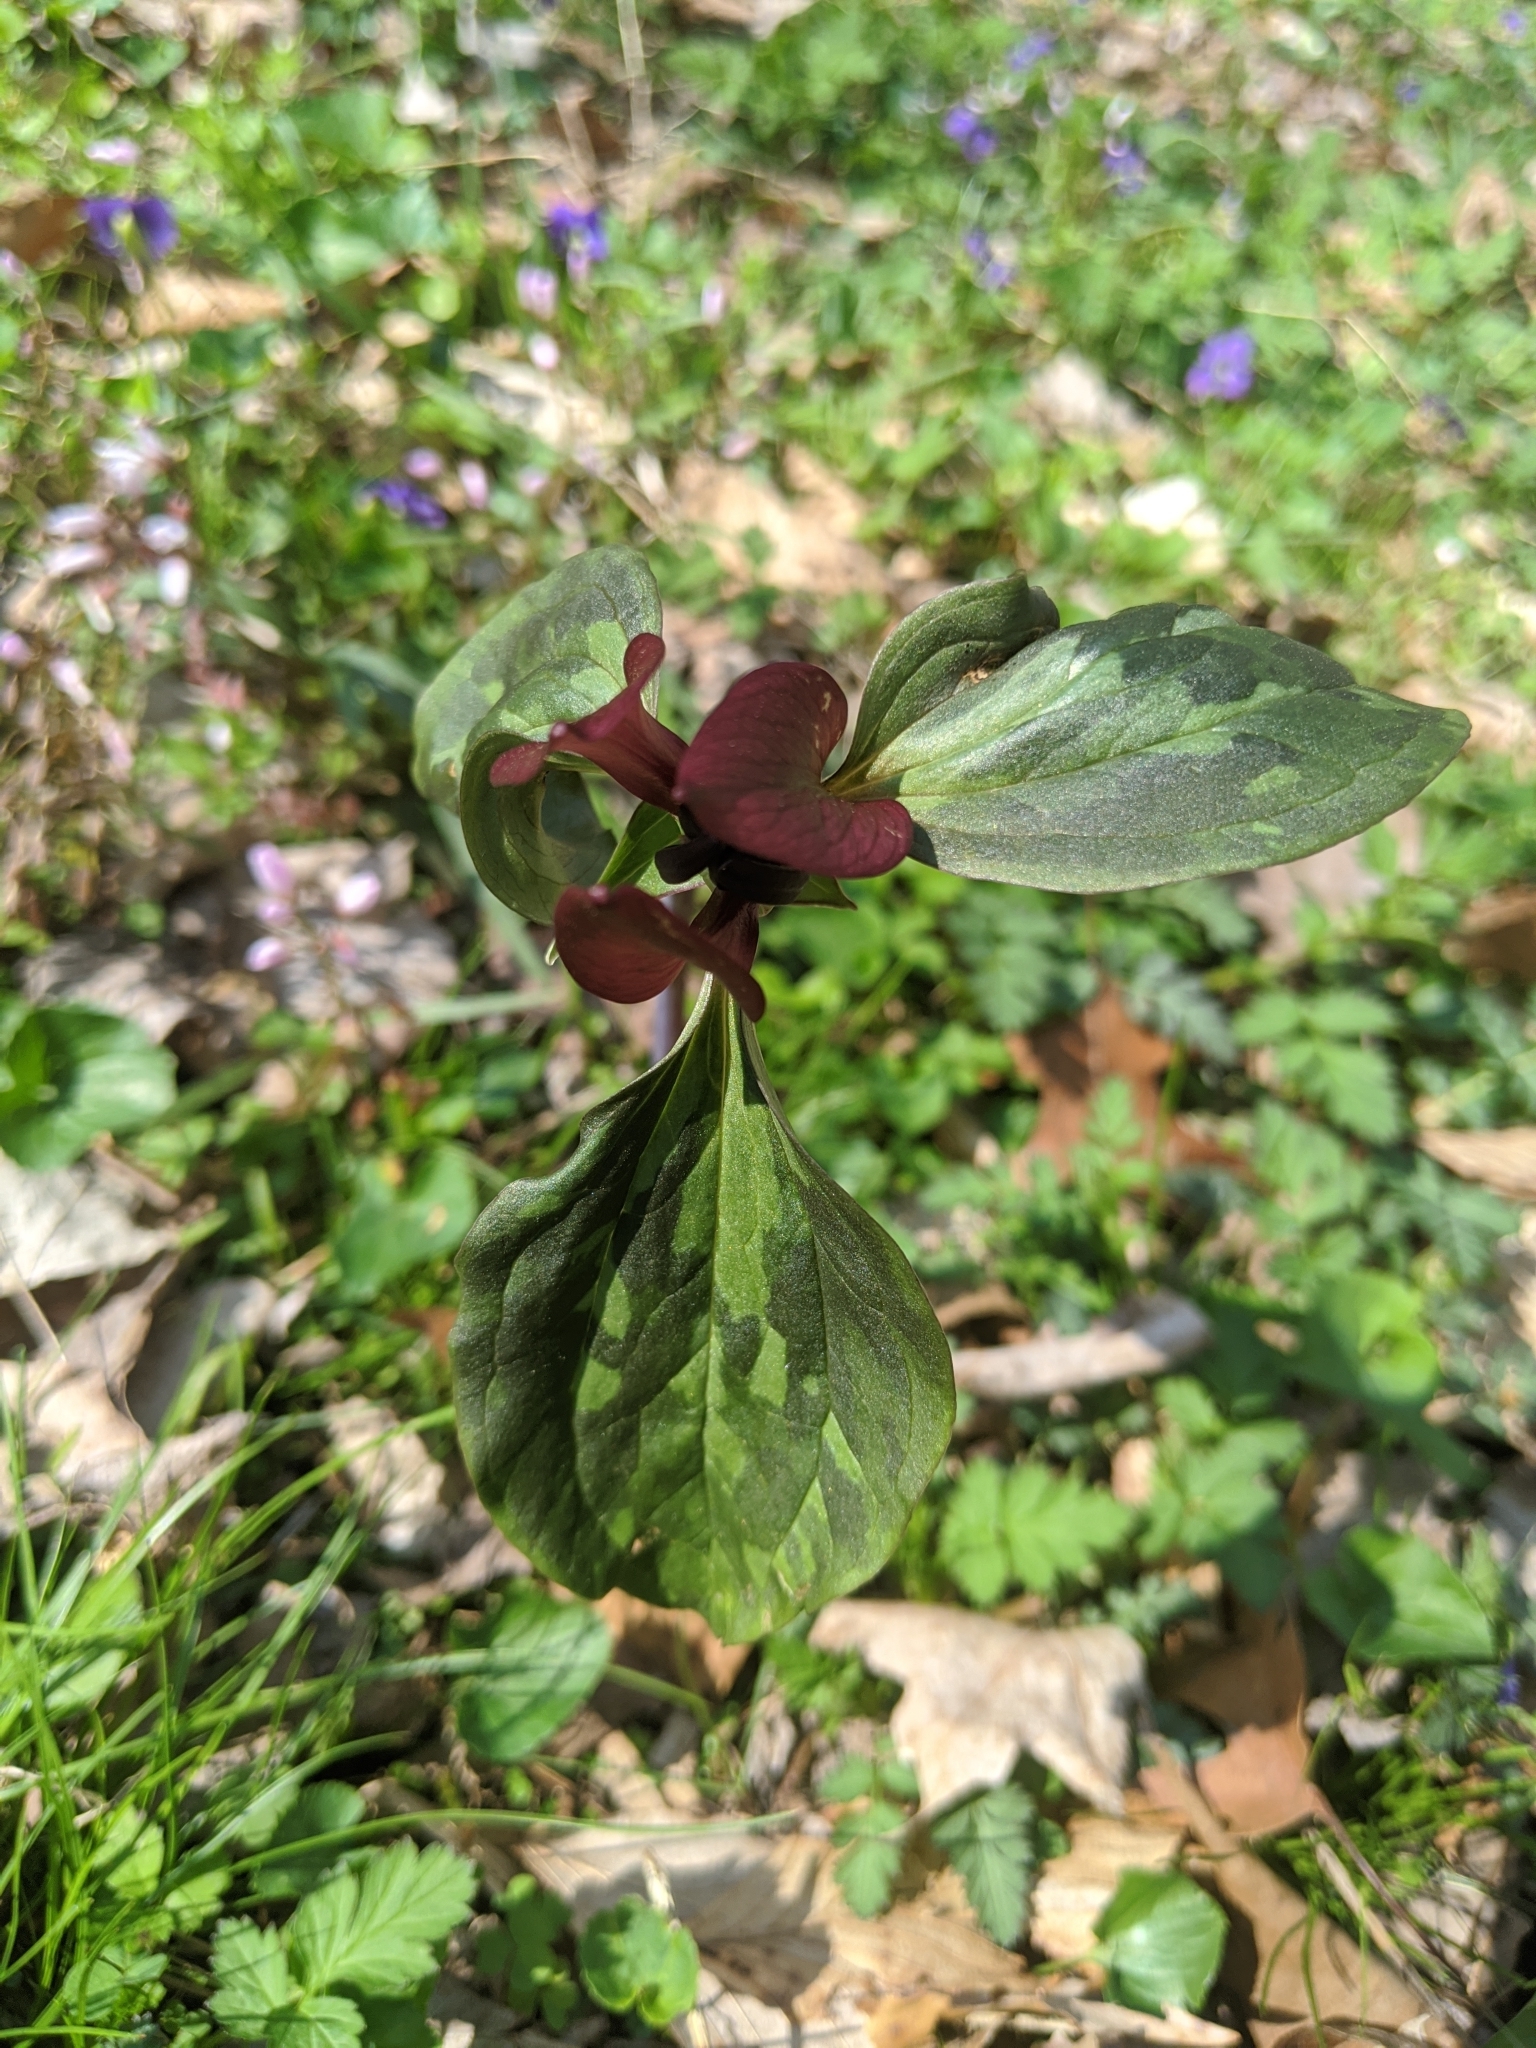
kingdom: Plantae
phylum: Tracheophyta
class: Liliopsida
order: Liliales
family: Melanthiaceae
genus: Trillium
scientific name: Trillium recurvatum
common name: Bloody butcher
